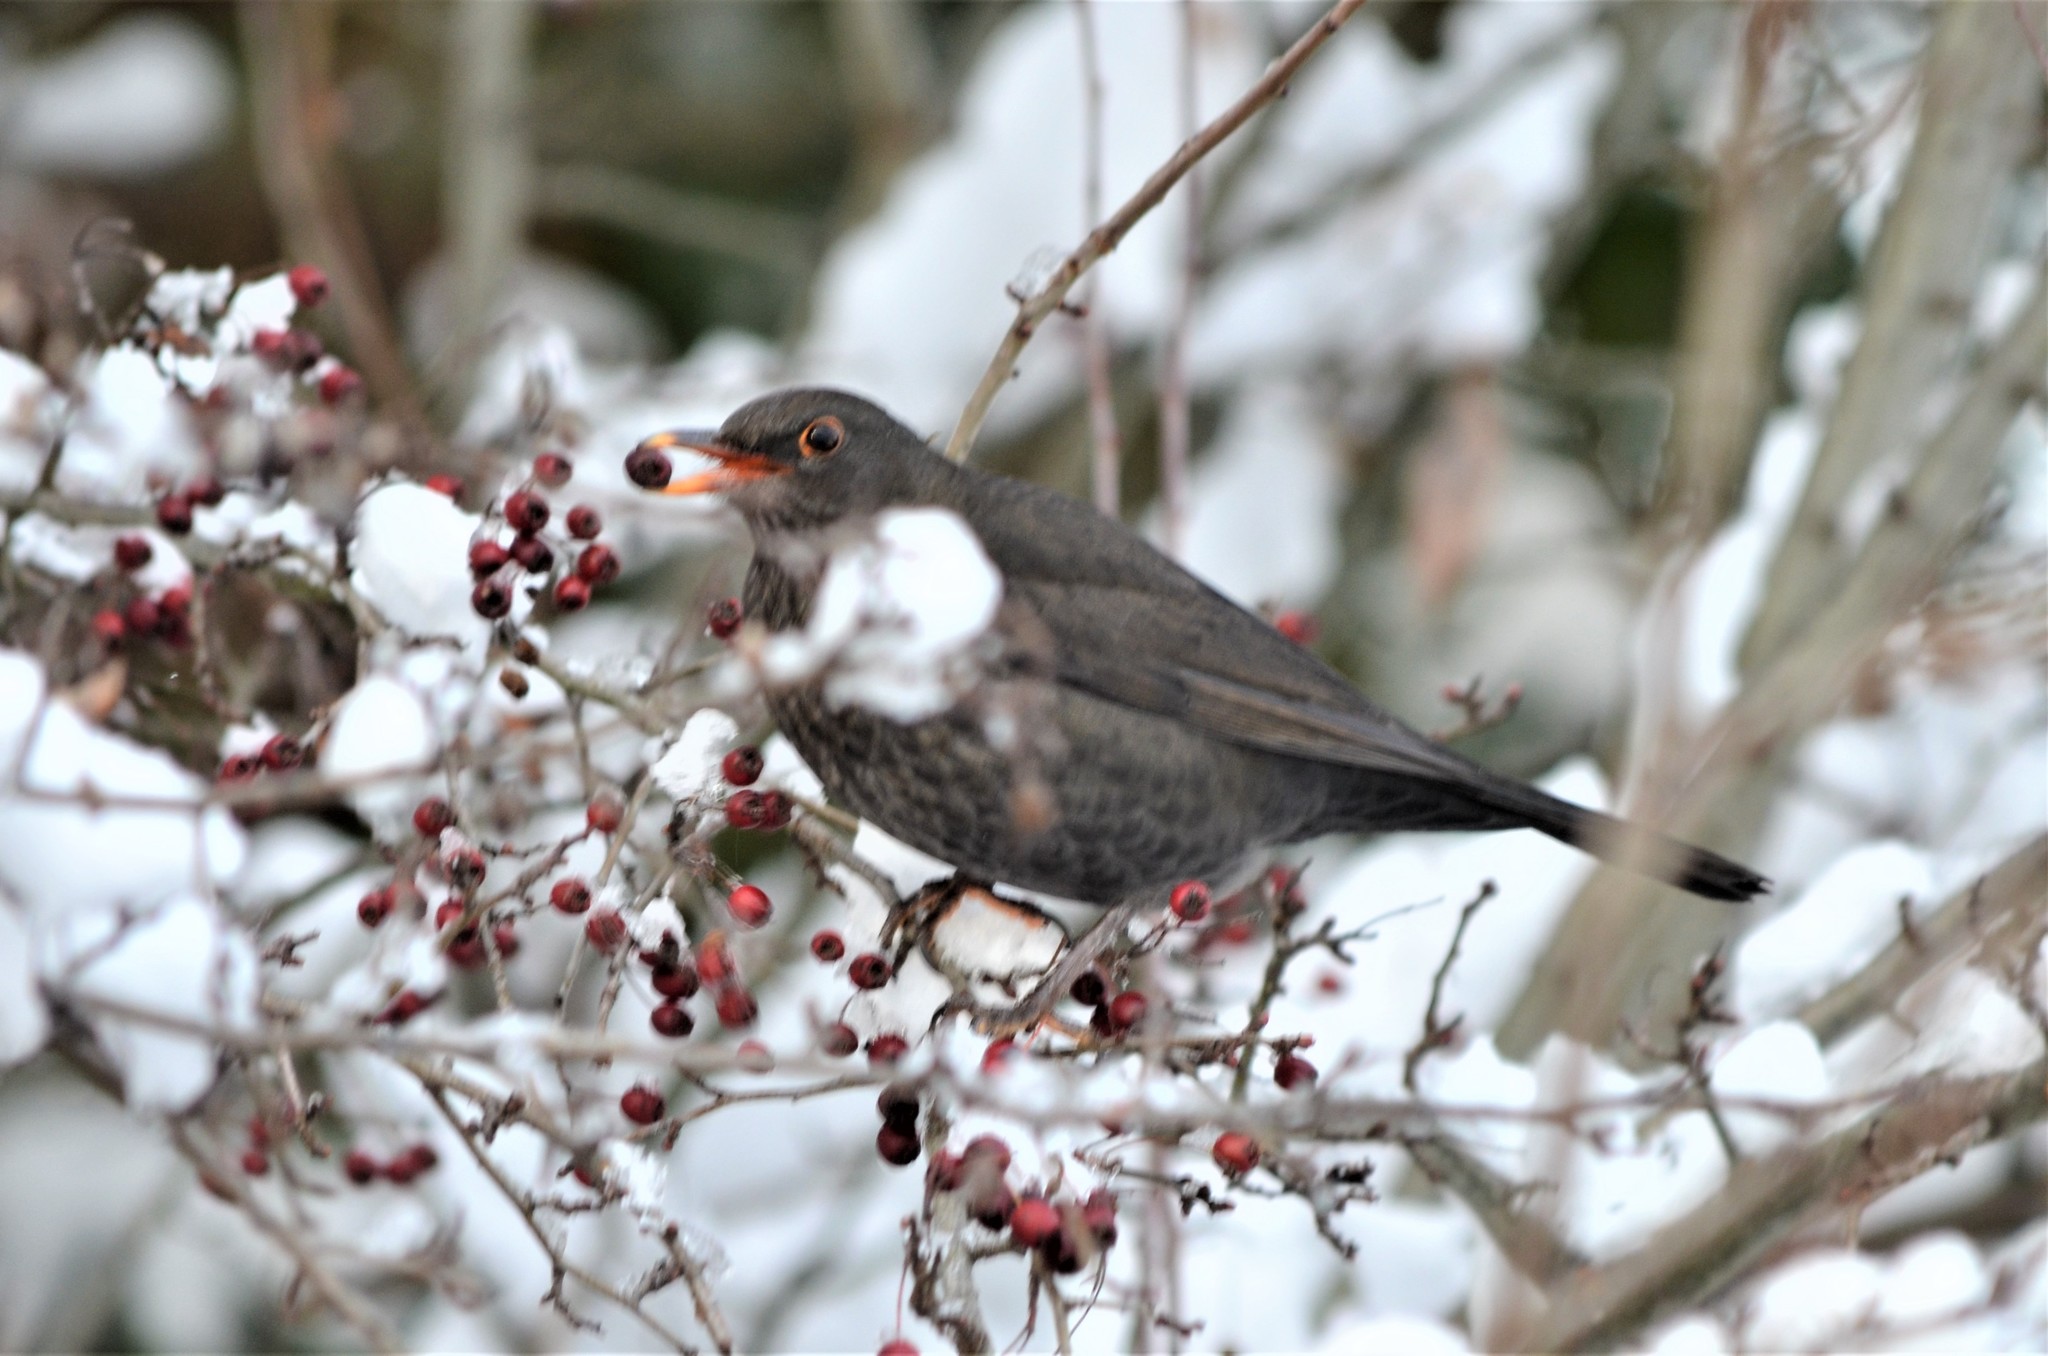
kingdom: Animalia
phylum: Chordata
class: Aves
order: Passeriformes
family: Turdidae
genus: Turdus
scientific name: Turdus merula
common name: Common blackbird
